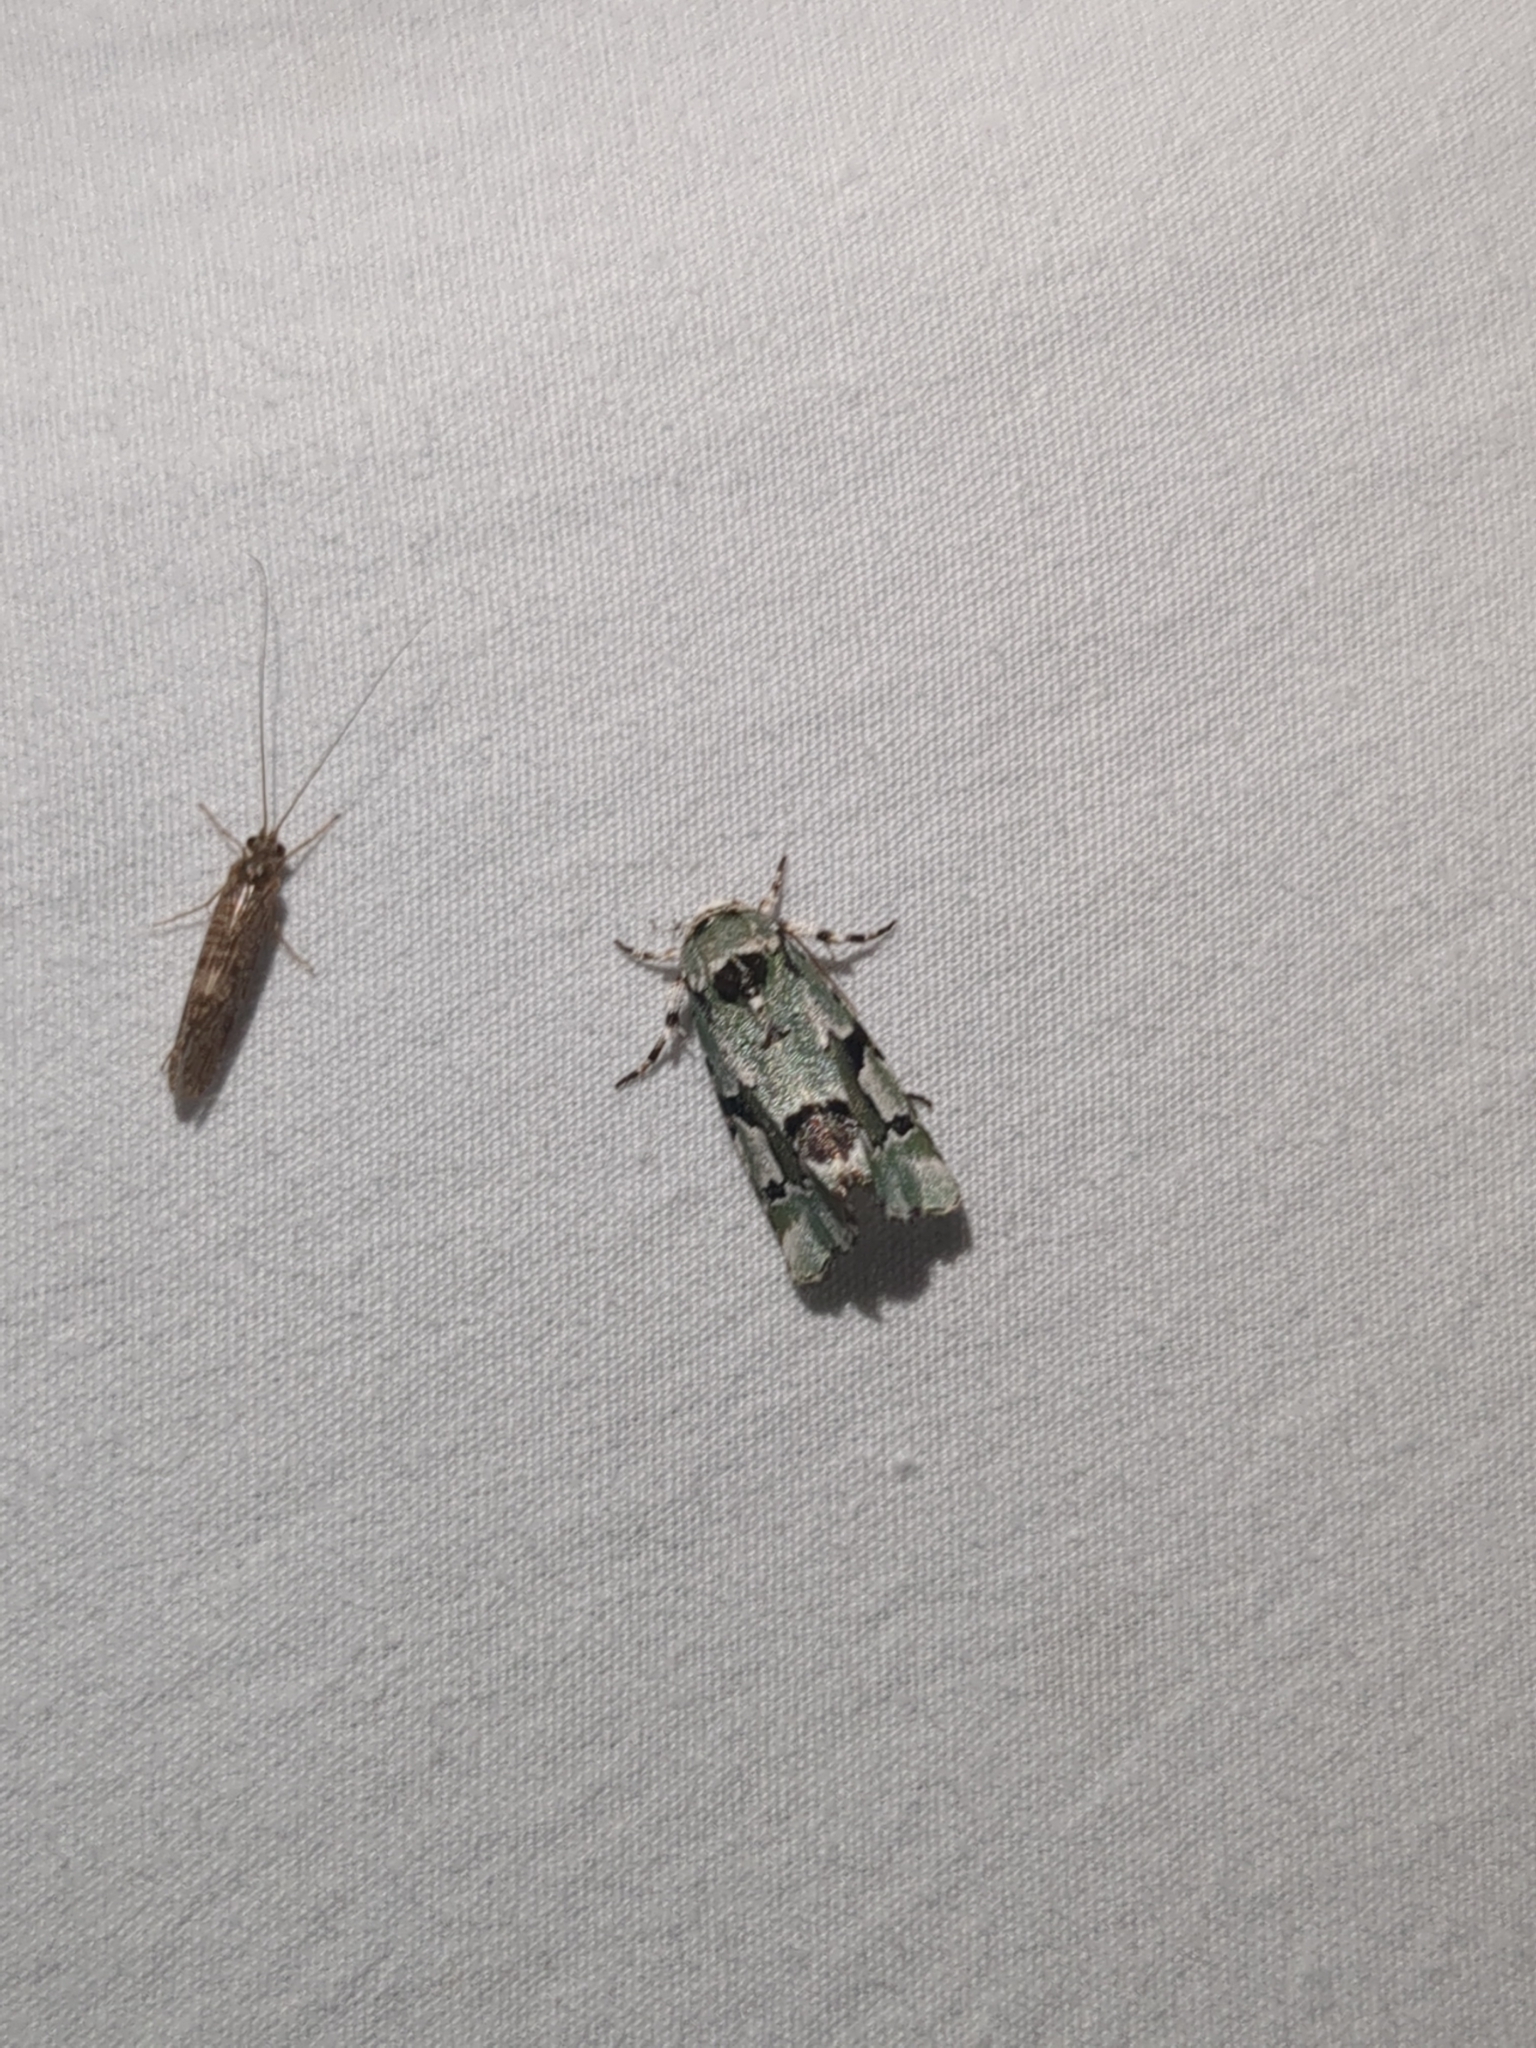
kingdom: Animalia
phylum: Arthropoda
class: Insecta
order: Lepidoptera
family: Noctuidae
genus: Emarginea
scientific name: Emarginea percara
